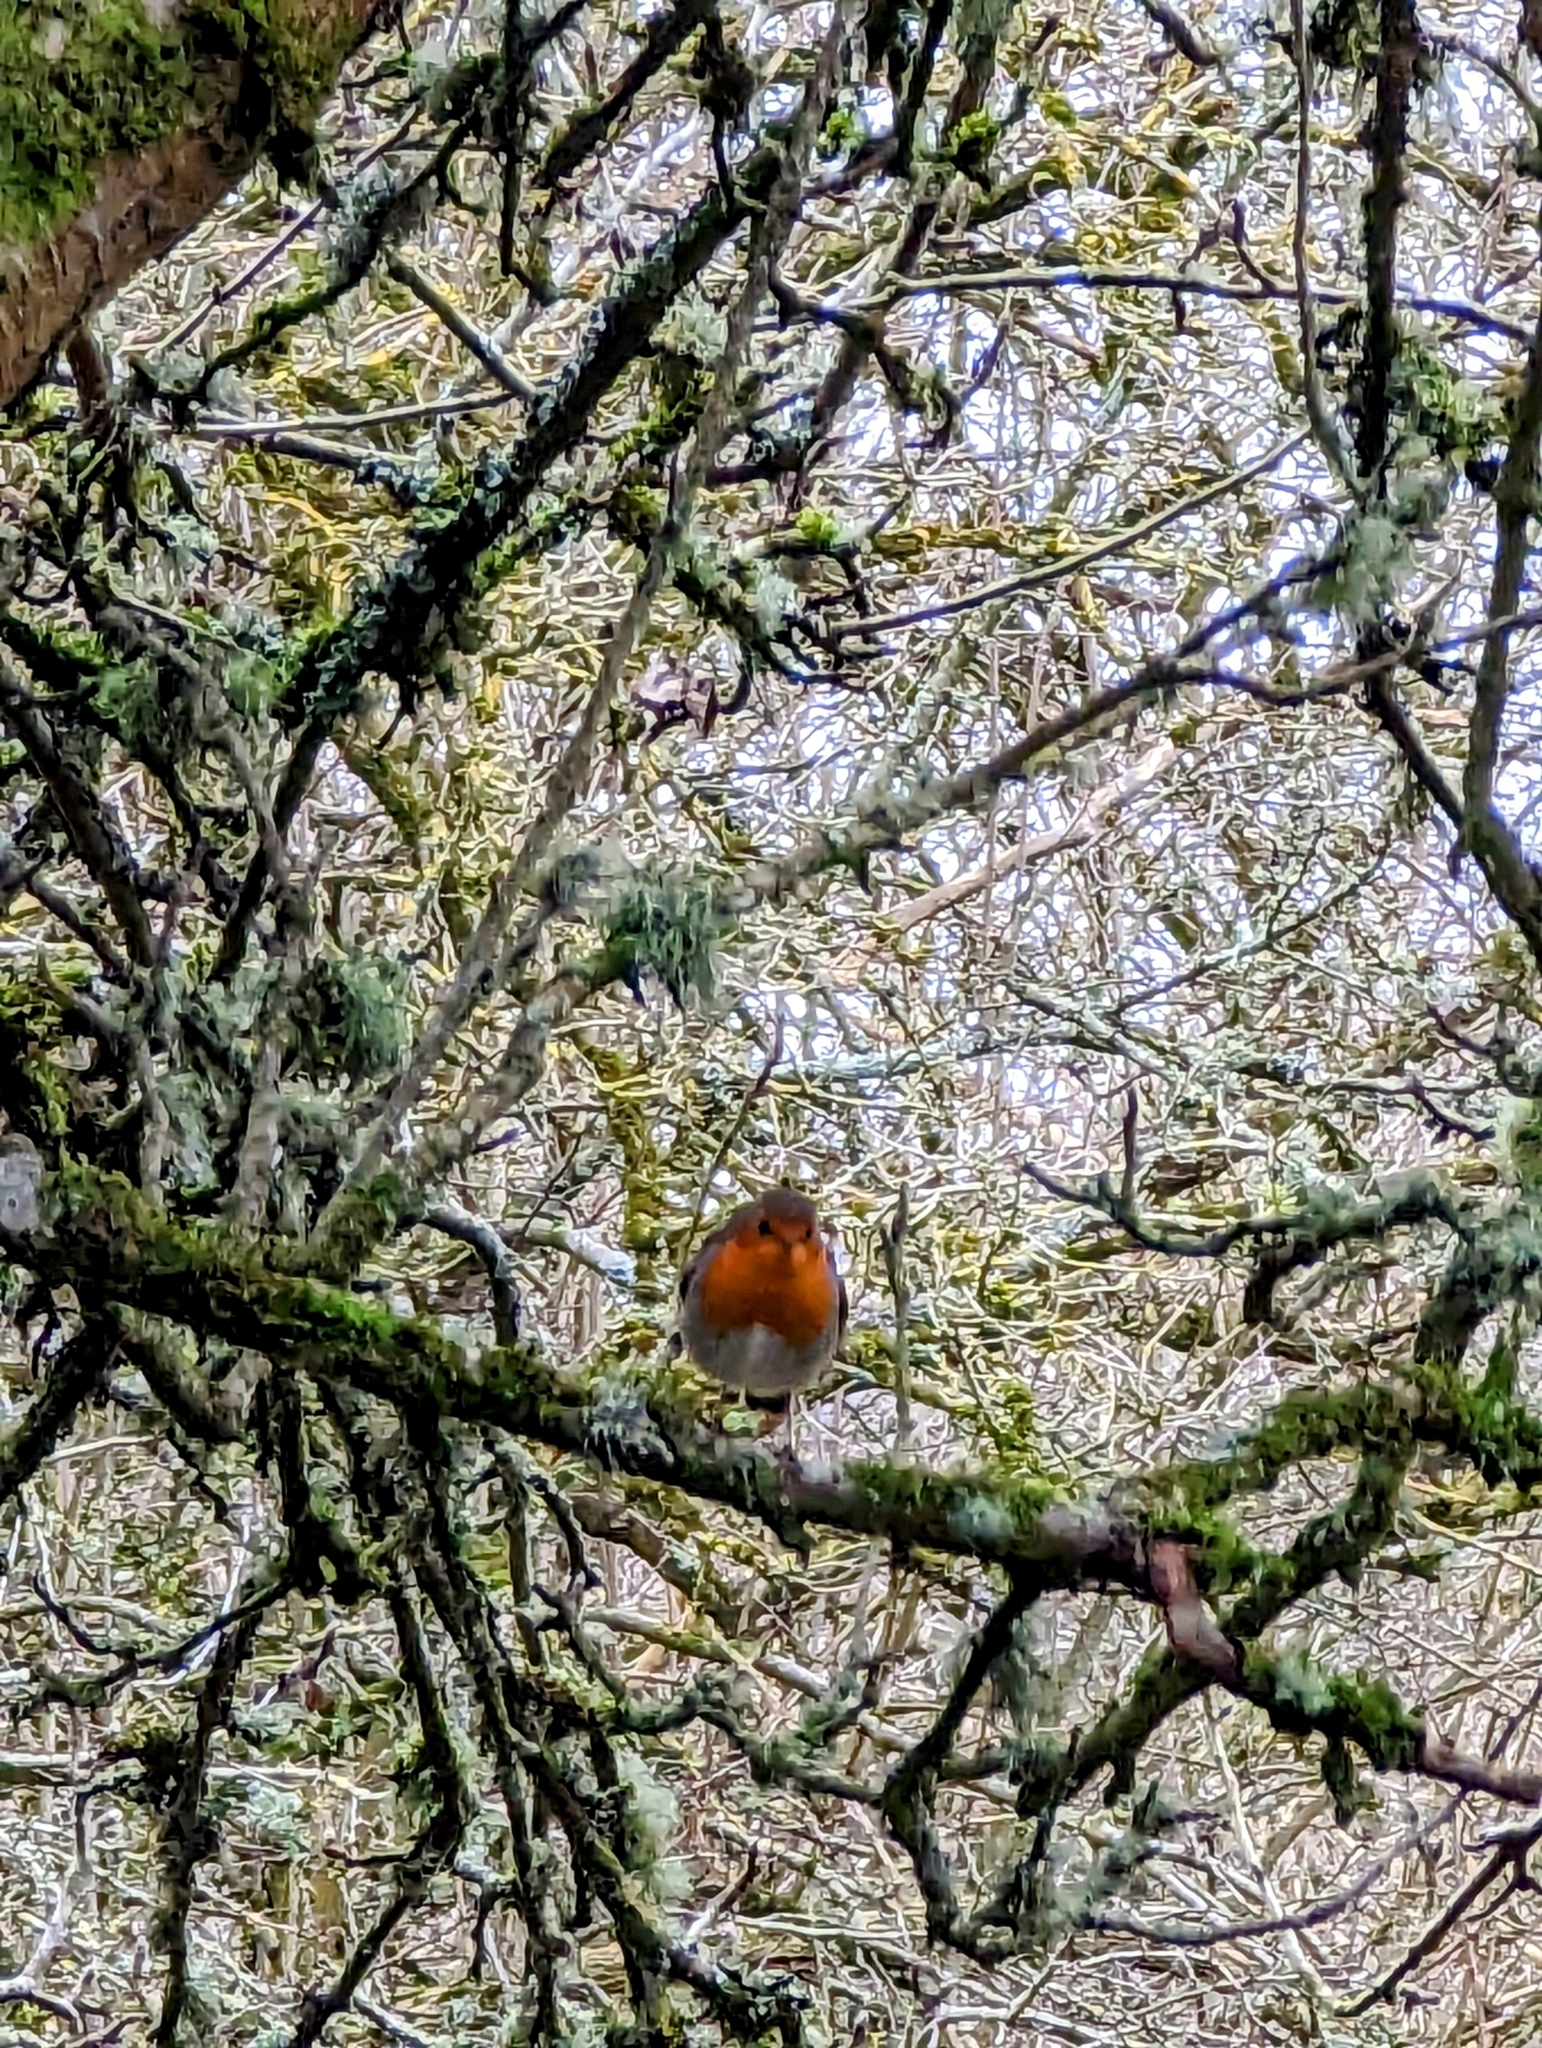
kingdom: Animalia
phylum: Chordata
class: Aves
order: Passeriformes
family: Muscicapidae
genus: Erithacus
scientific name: Erithacus rubecula
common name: European robin
